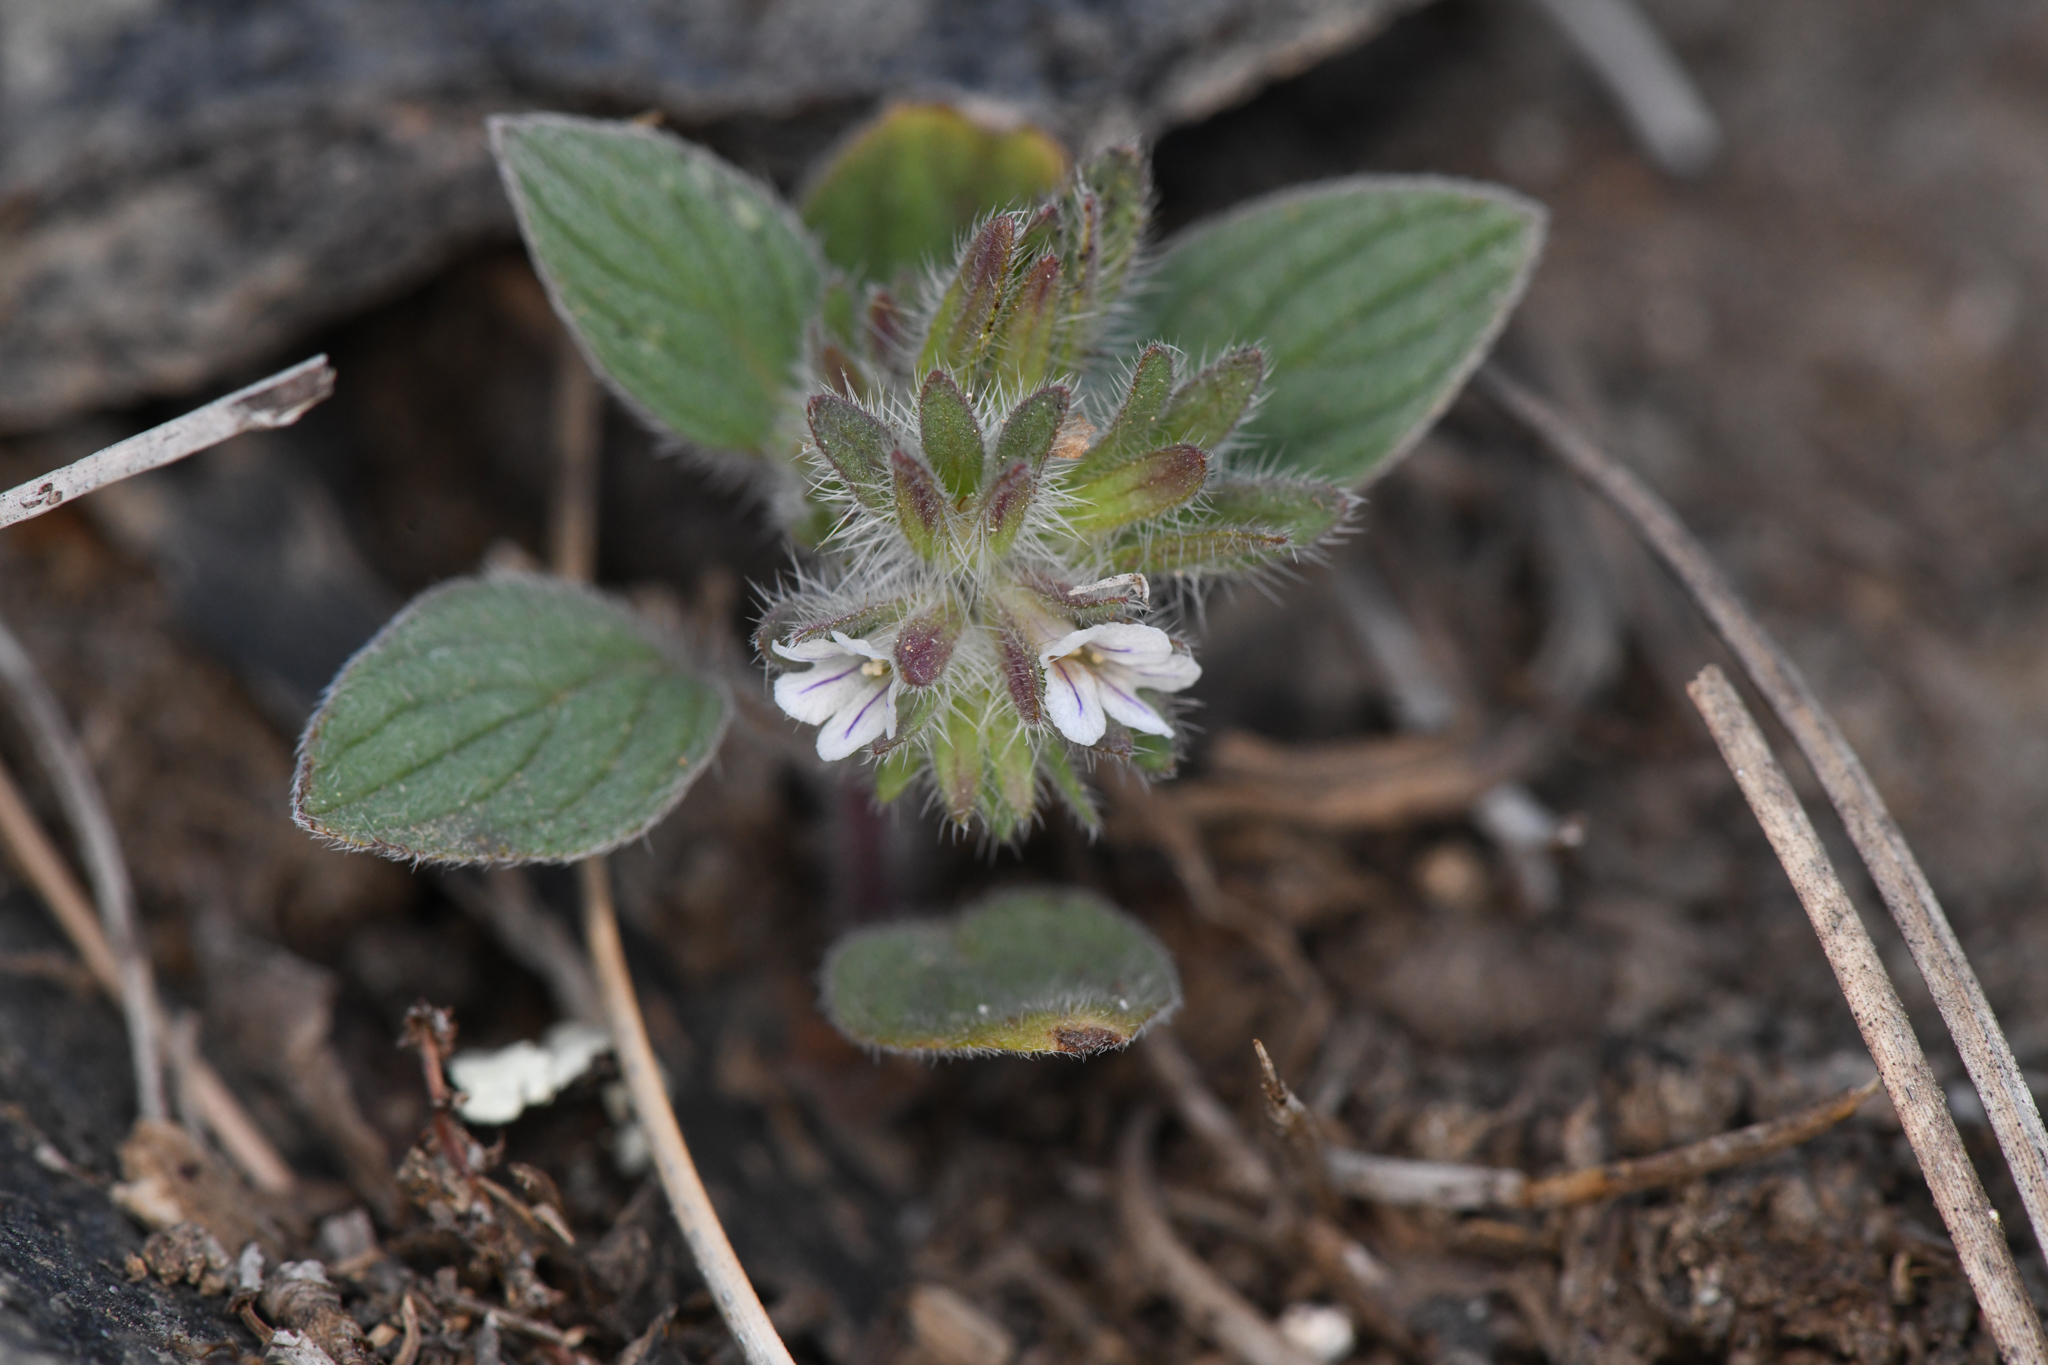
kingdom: Plantae
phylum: Tracheophyta
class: Magnoliopsida
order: Boraginales
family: Hydrophyllaceae
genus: Phacelia
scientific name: Phacelia phacelioides
